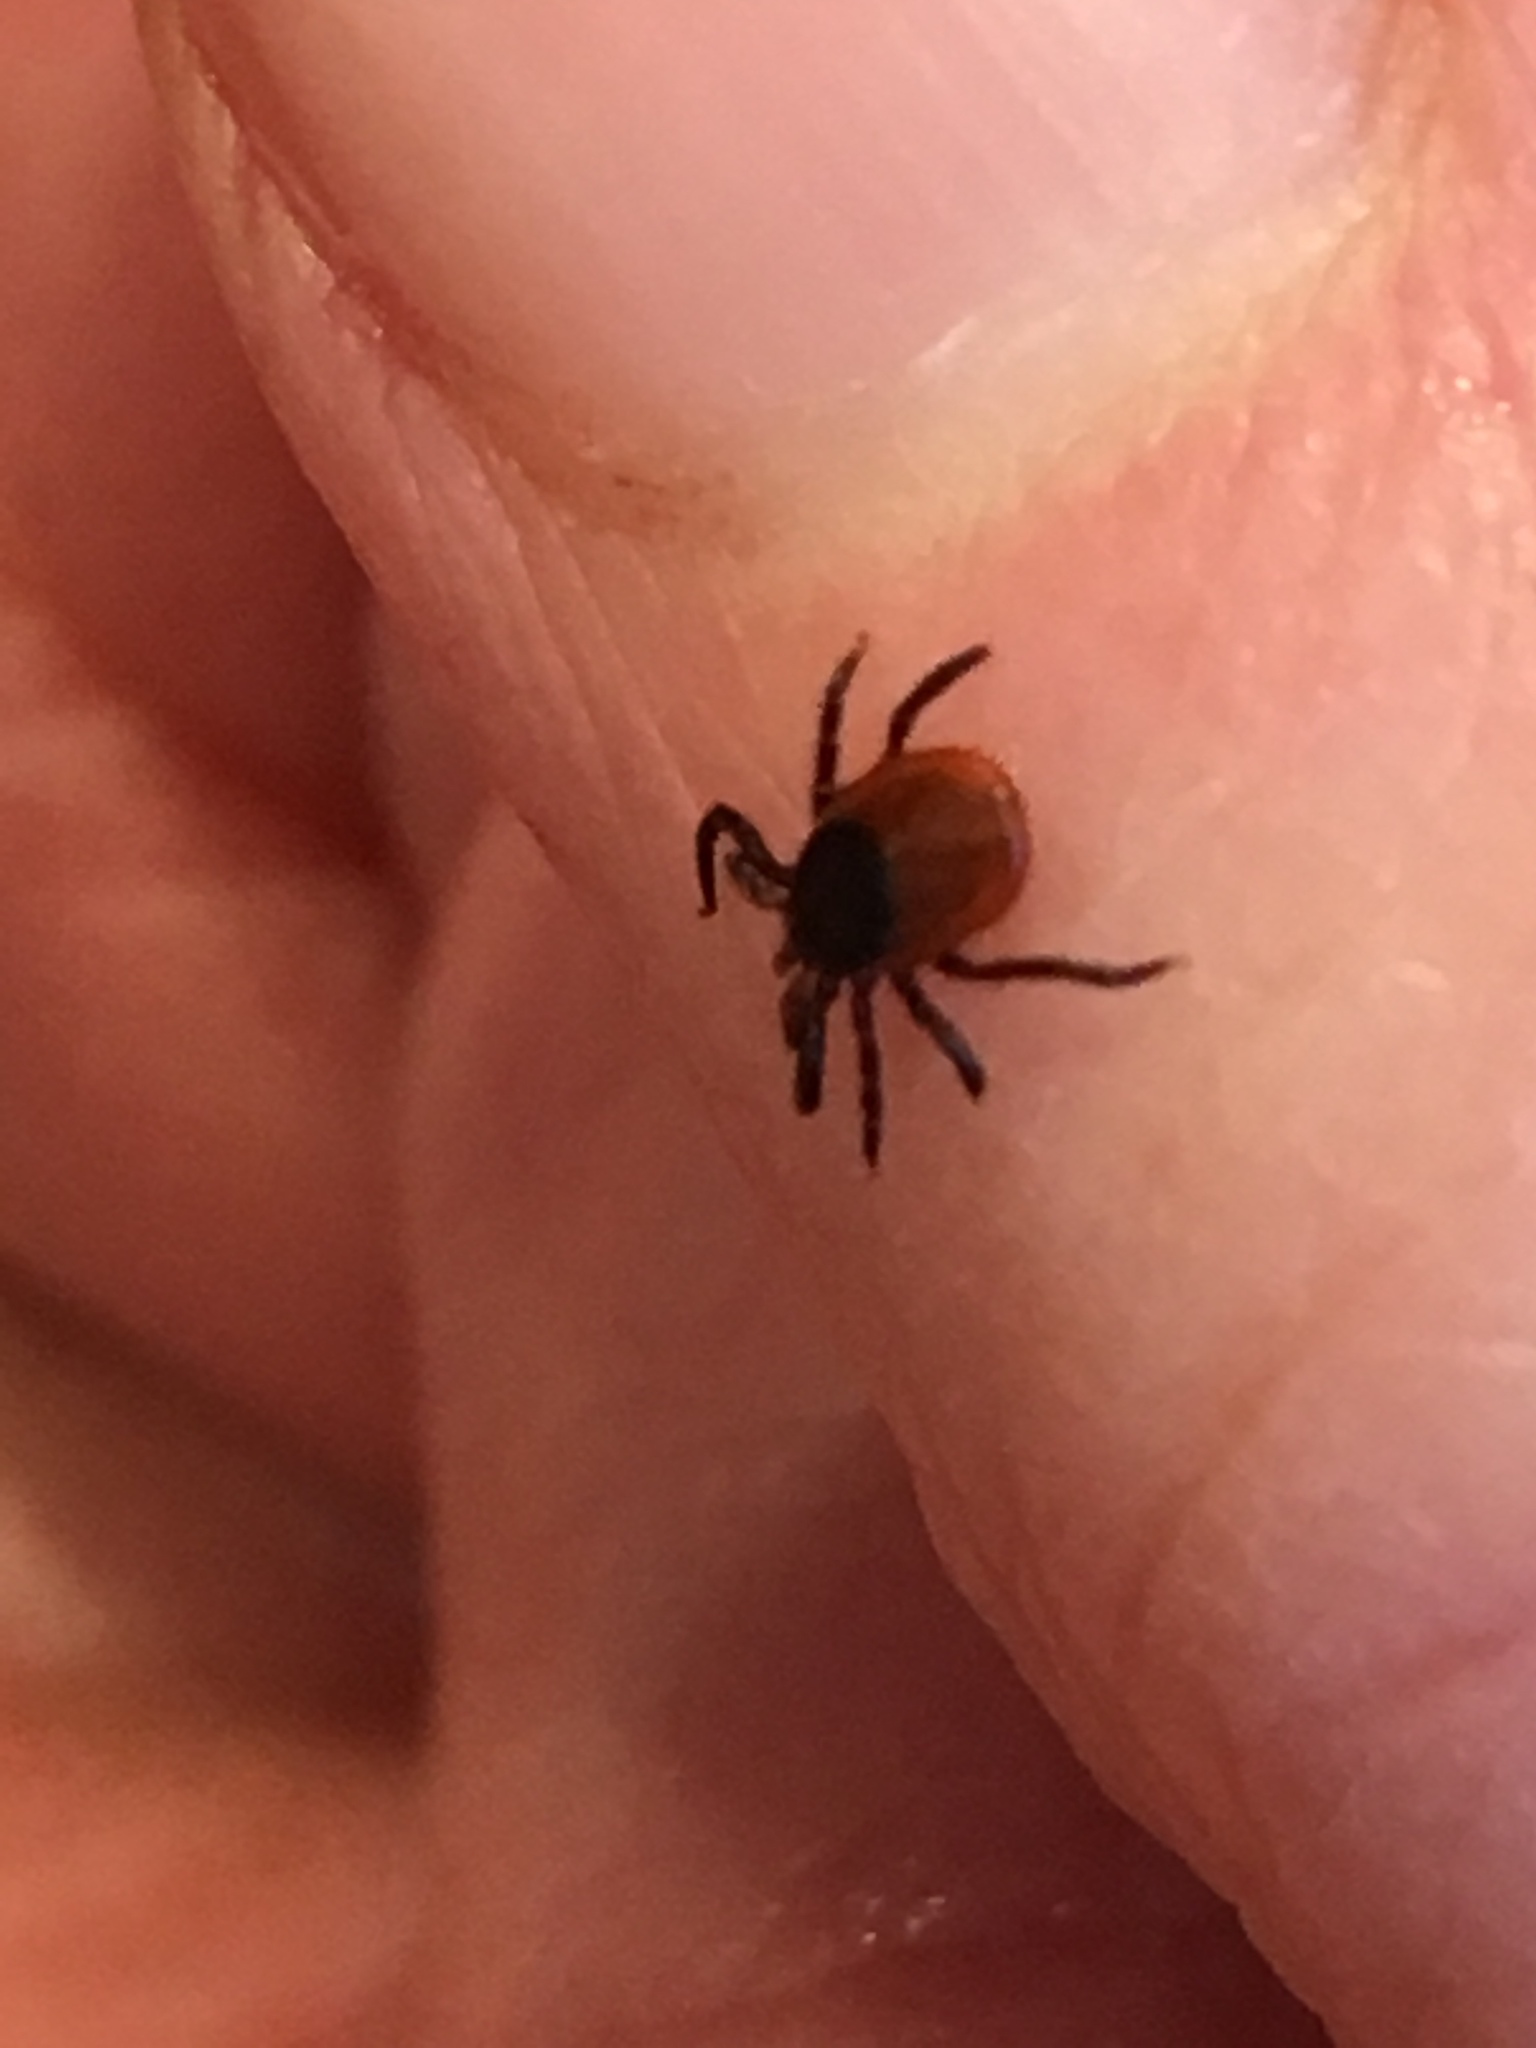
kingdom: Animalia
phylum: Arthropoda
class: Arachnida
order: Ixodida
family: Ixodidae
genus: Ixodes
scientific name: Ixodes scapularis
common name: Black legged tick
